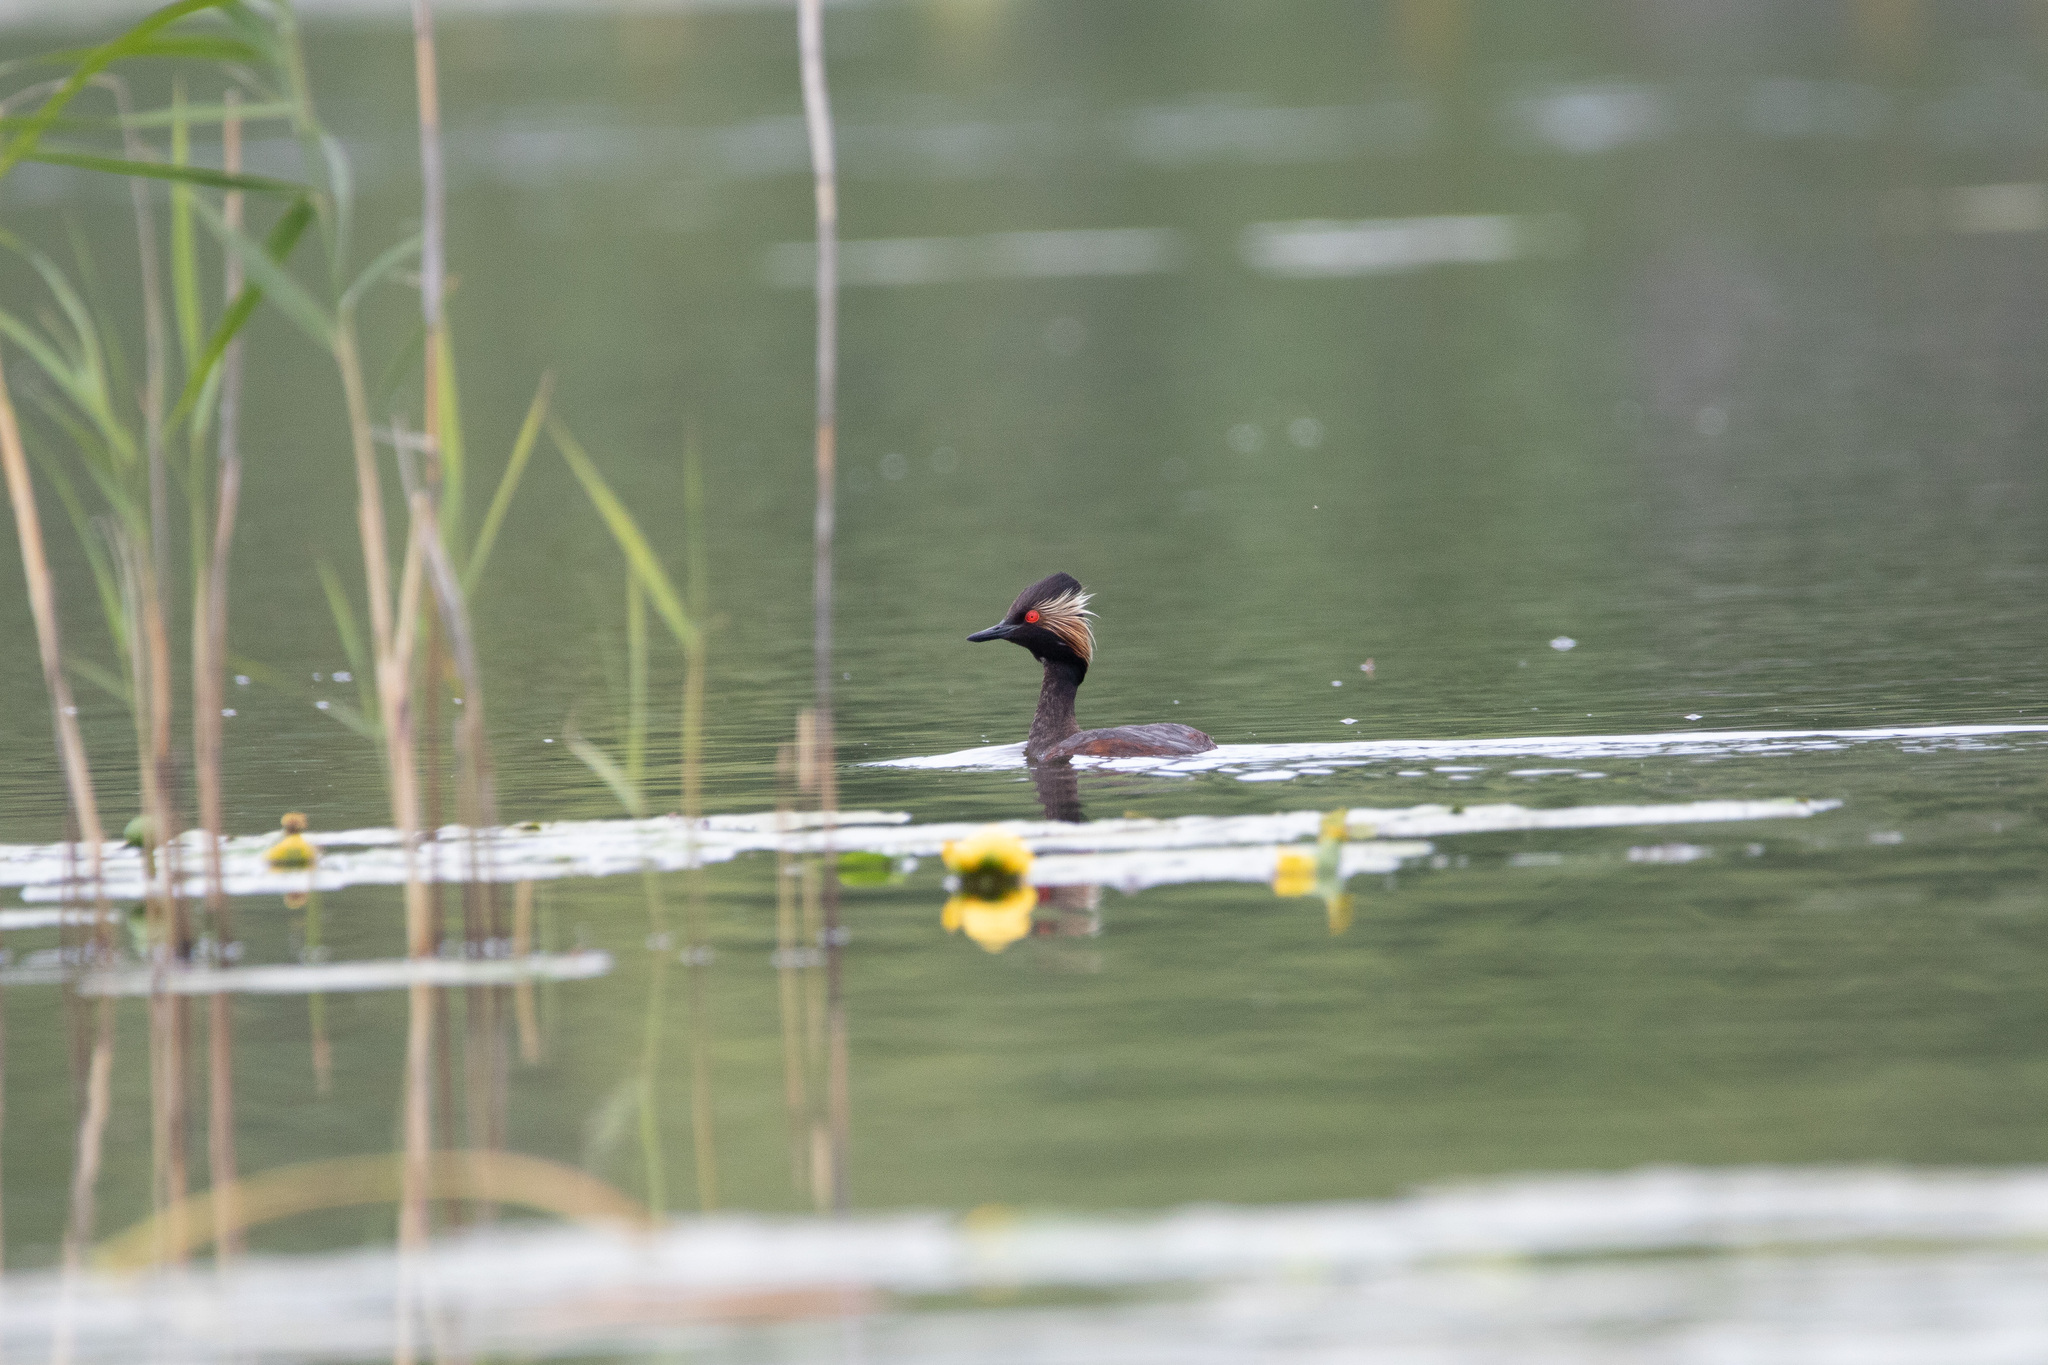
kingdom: Animalia
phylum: Chordata
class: Aves
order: Podicipediformes
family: Podicipedidae
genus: Podiceps
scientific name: Podiceps nigricollis
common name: Black-necked grebe
